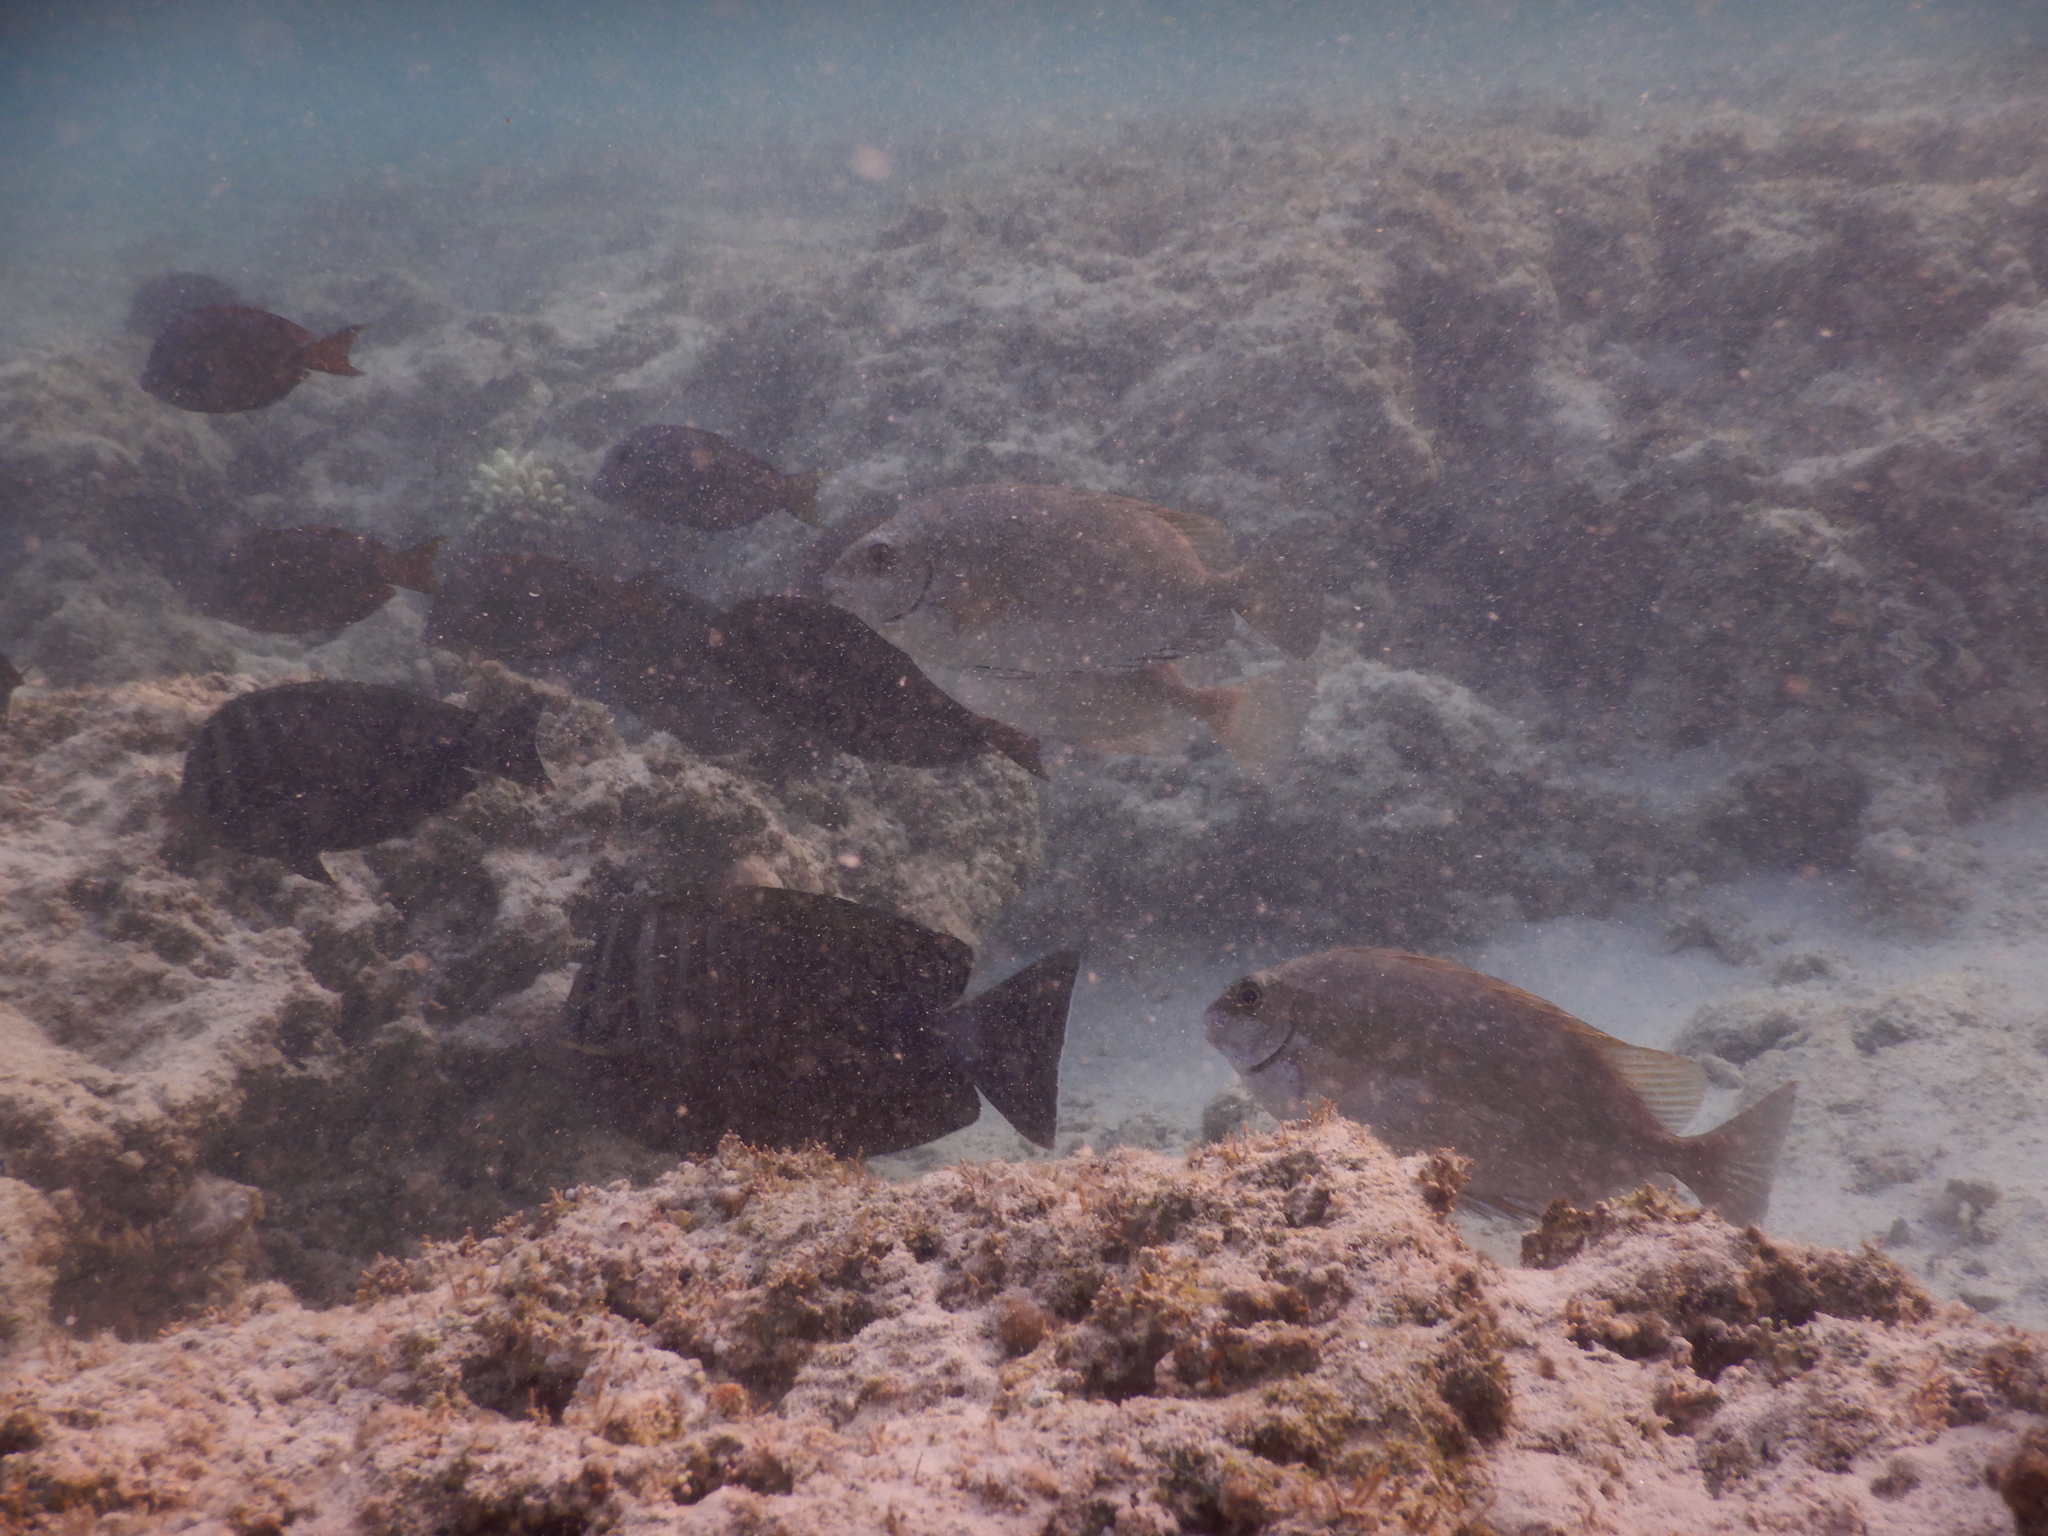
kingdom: Animalia
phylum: Chordata
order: Perciformes
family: Siganidae
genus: Siganus
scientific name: Siganus luridus
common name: Dusky spinefoot
